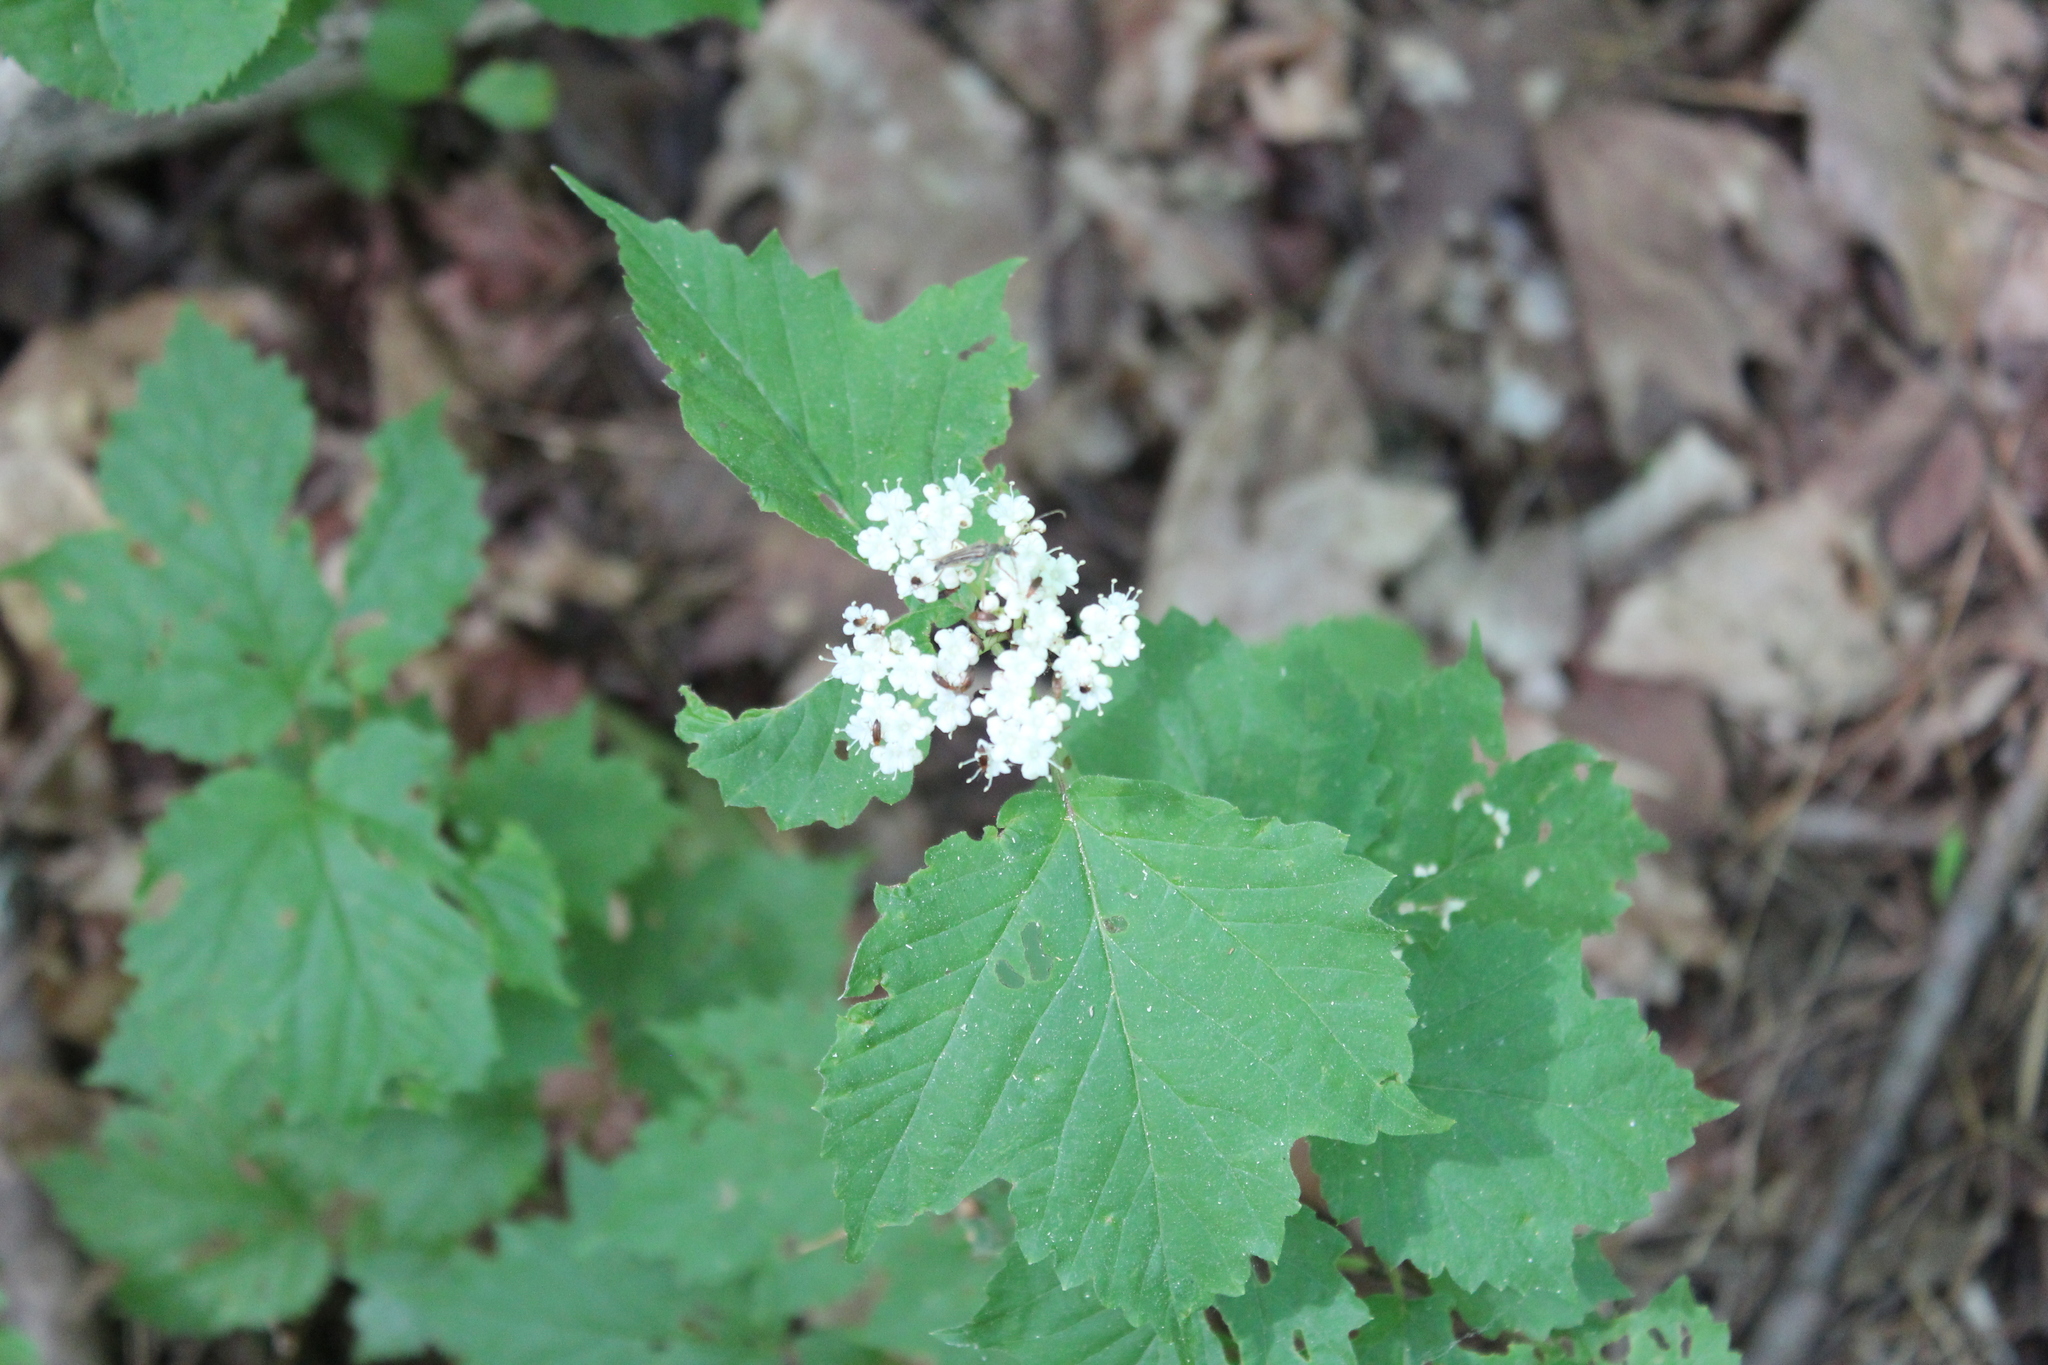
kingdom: Plantae
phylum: Tracheophyta
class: Magnoliopsida
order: Dipsacales
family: Viburnaceae
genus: Viburnum
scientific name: Viburnum acerifolium
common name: Dockmackie
